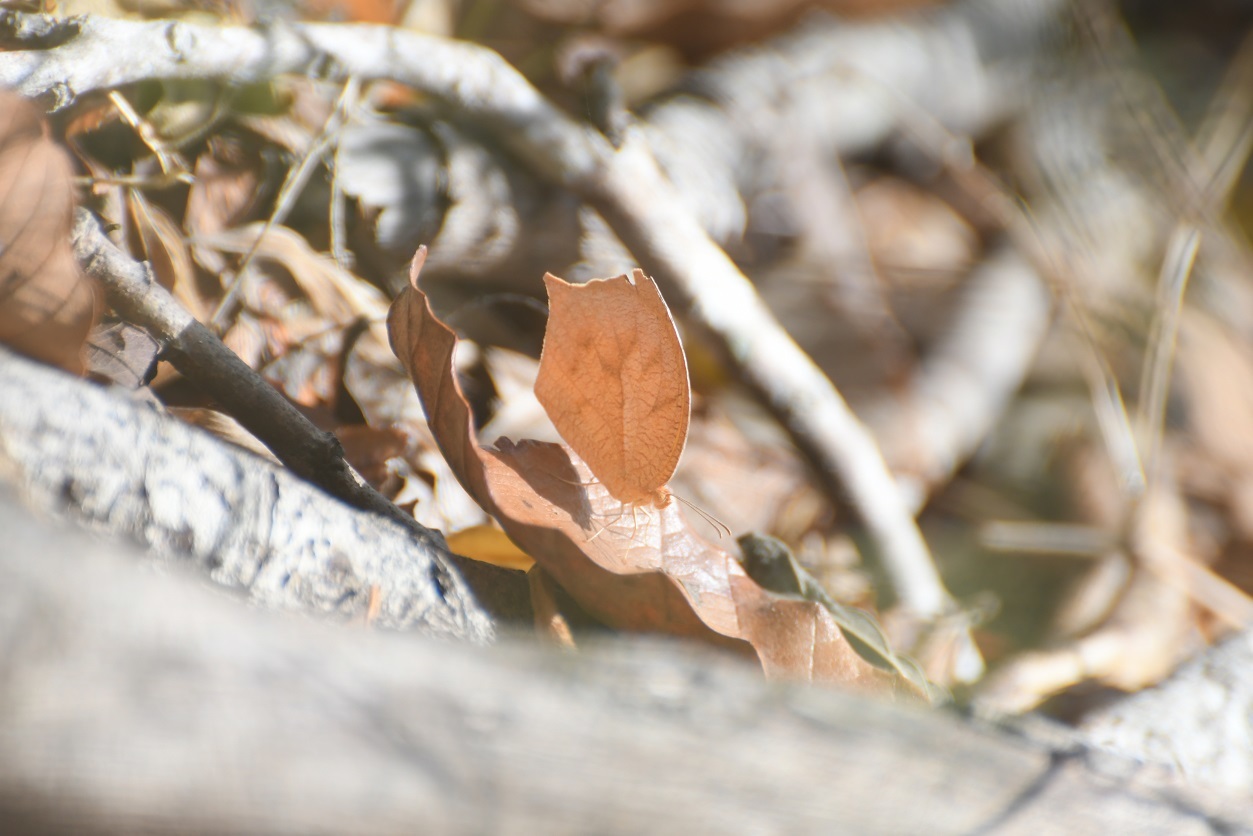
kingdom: Animalia
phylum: Arthropoda
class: Insecta
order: Lepidoptera
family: Pieridae
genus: Pyrisitia
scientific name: Pyrisitia proterpia
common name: Tailed orange
